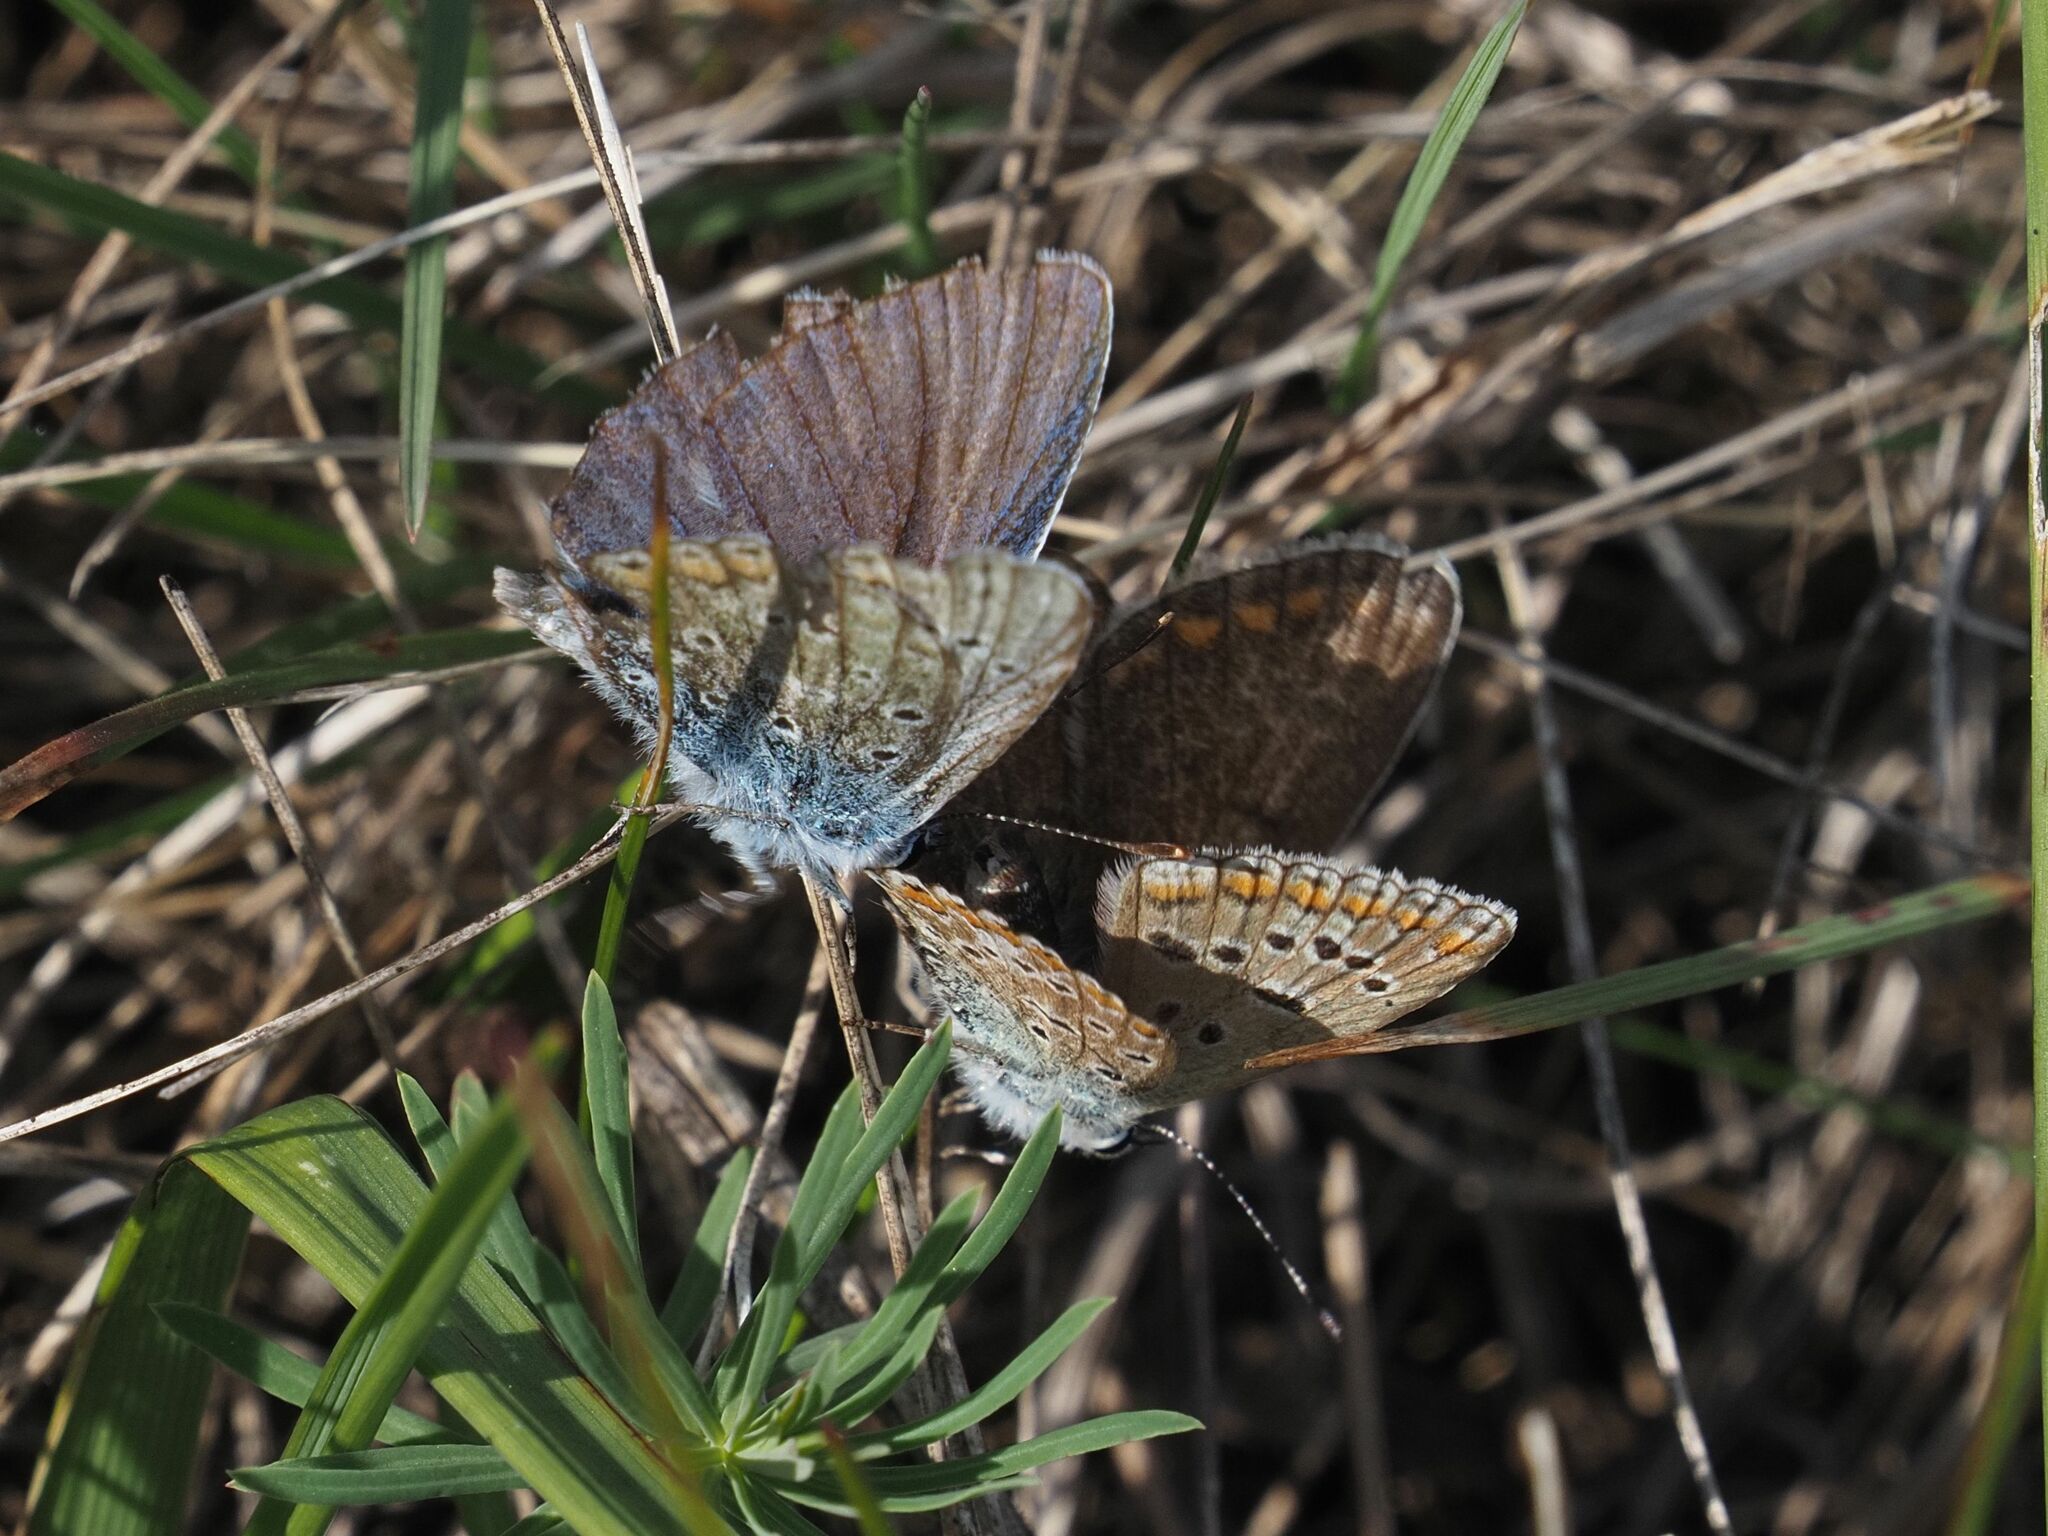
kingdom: Animalia
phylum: Arthropoda
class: Insecta
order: Lepidoptera
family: Lycaenidae
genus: Polyommatus
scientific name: Polyommatus icarus
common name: Common blue
